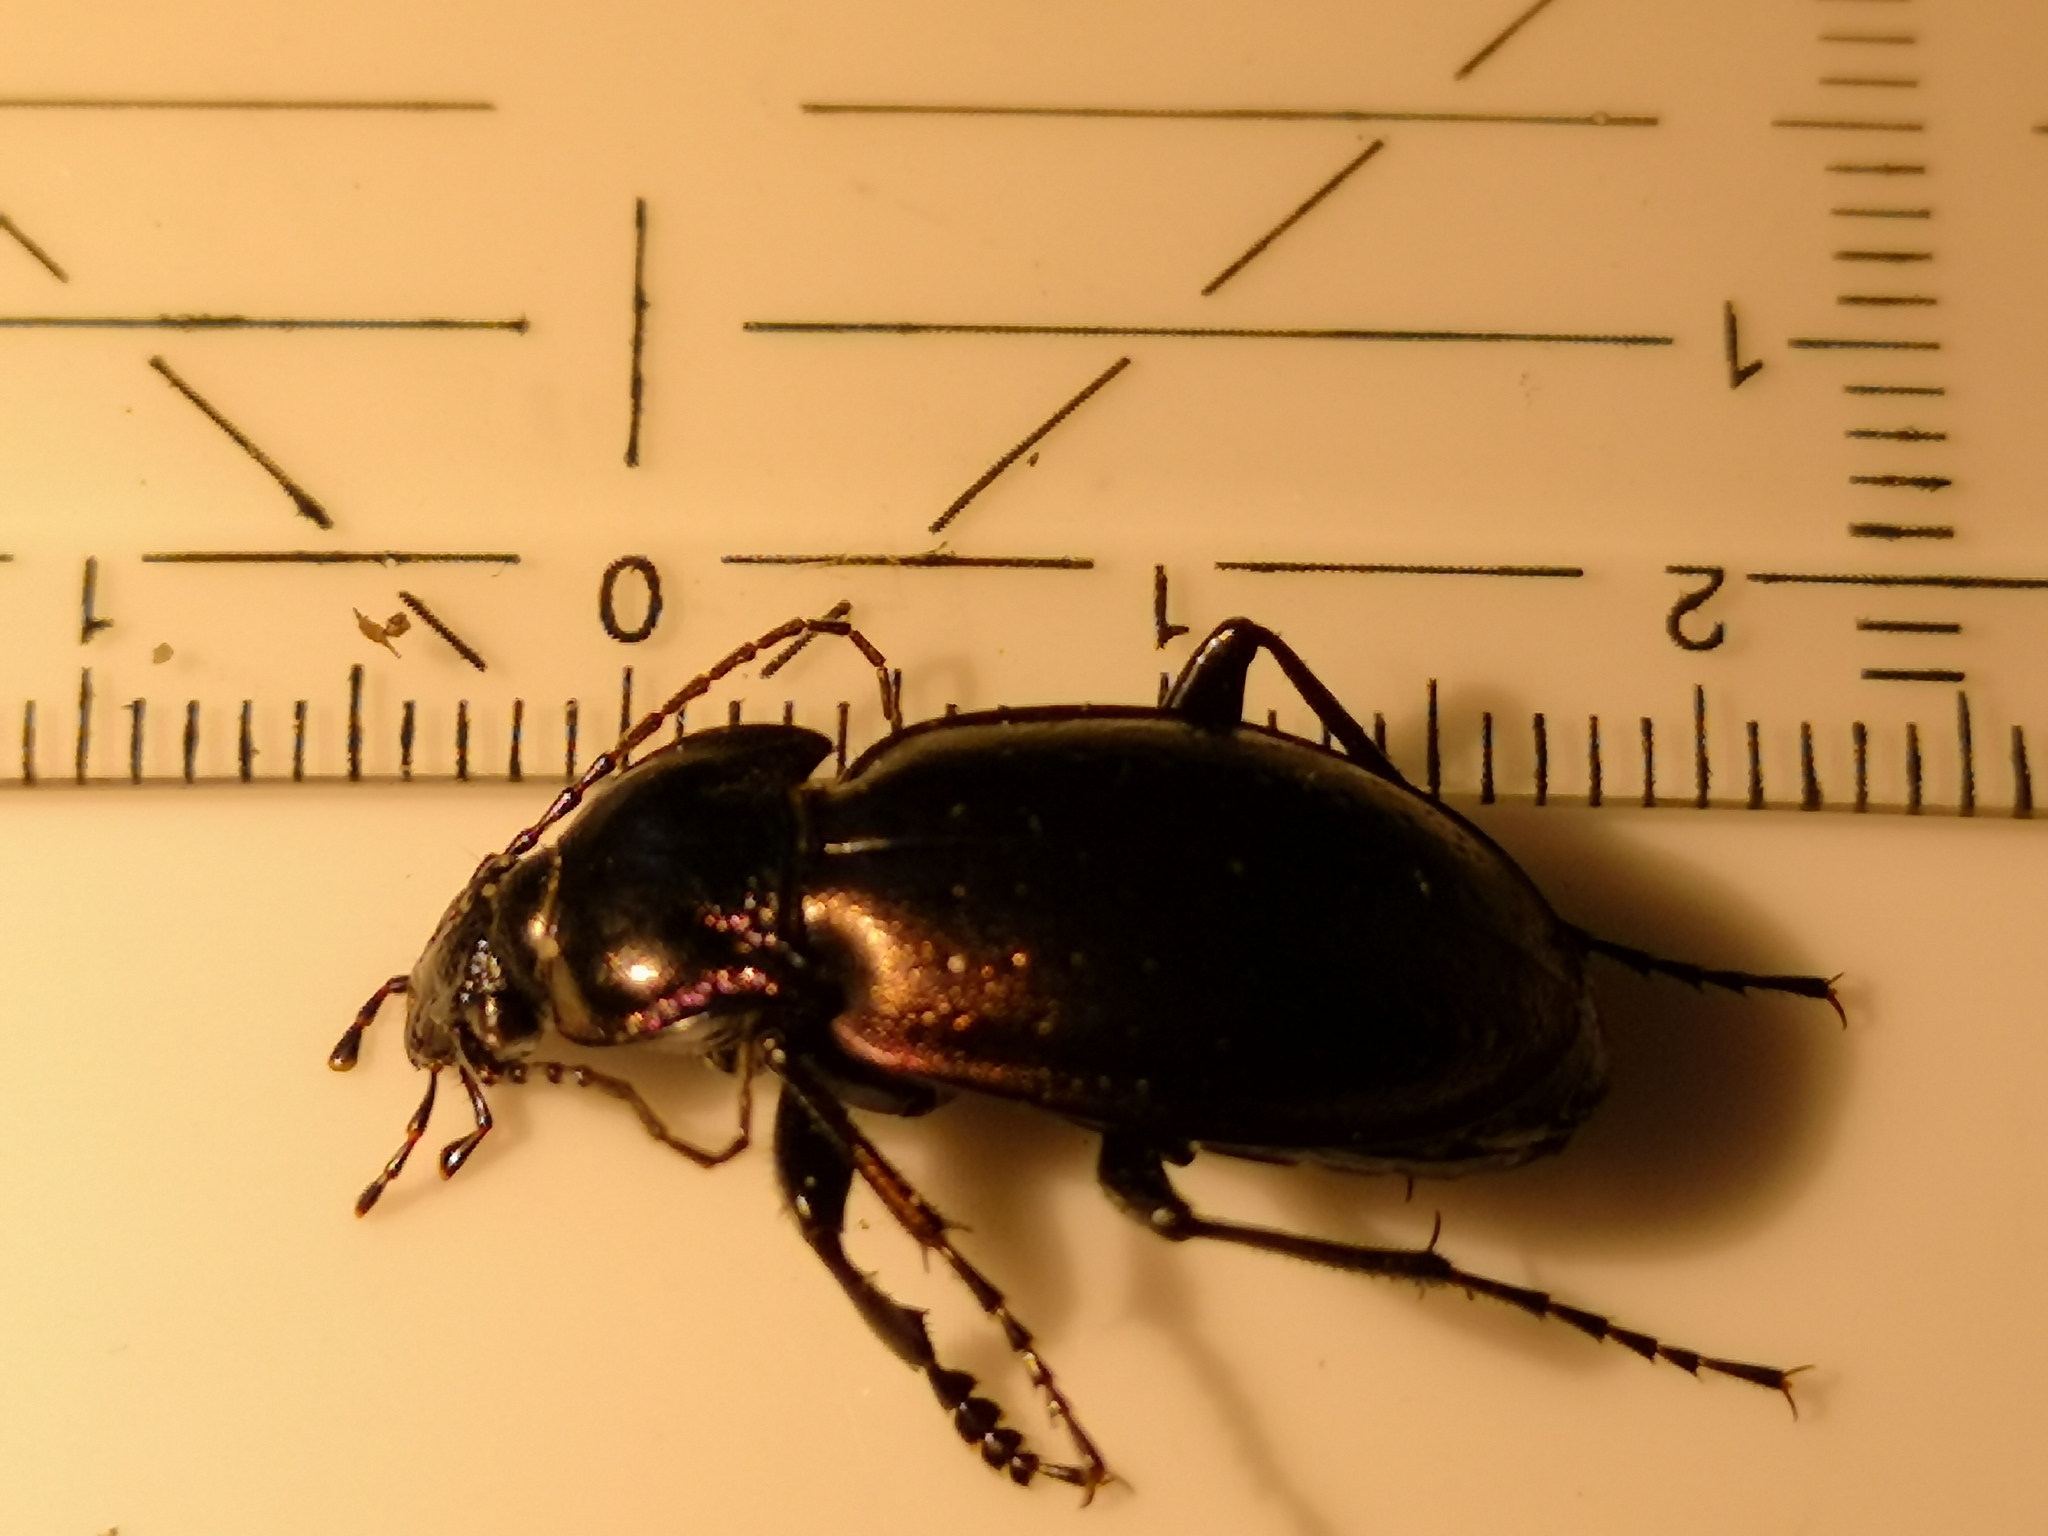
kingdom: Animalia
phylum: Arthropoda
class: Insecta
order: Coleoptera
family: Carabidae
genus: Carabus
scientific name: Carabus nemoralis
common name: European ground beetle
